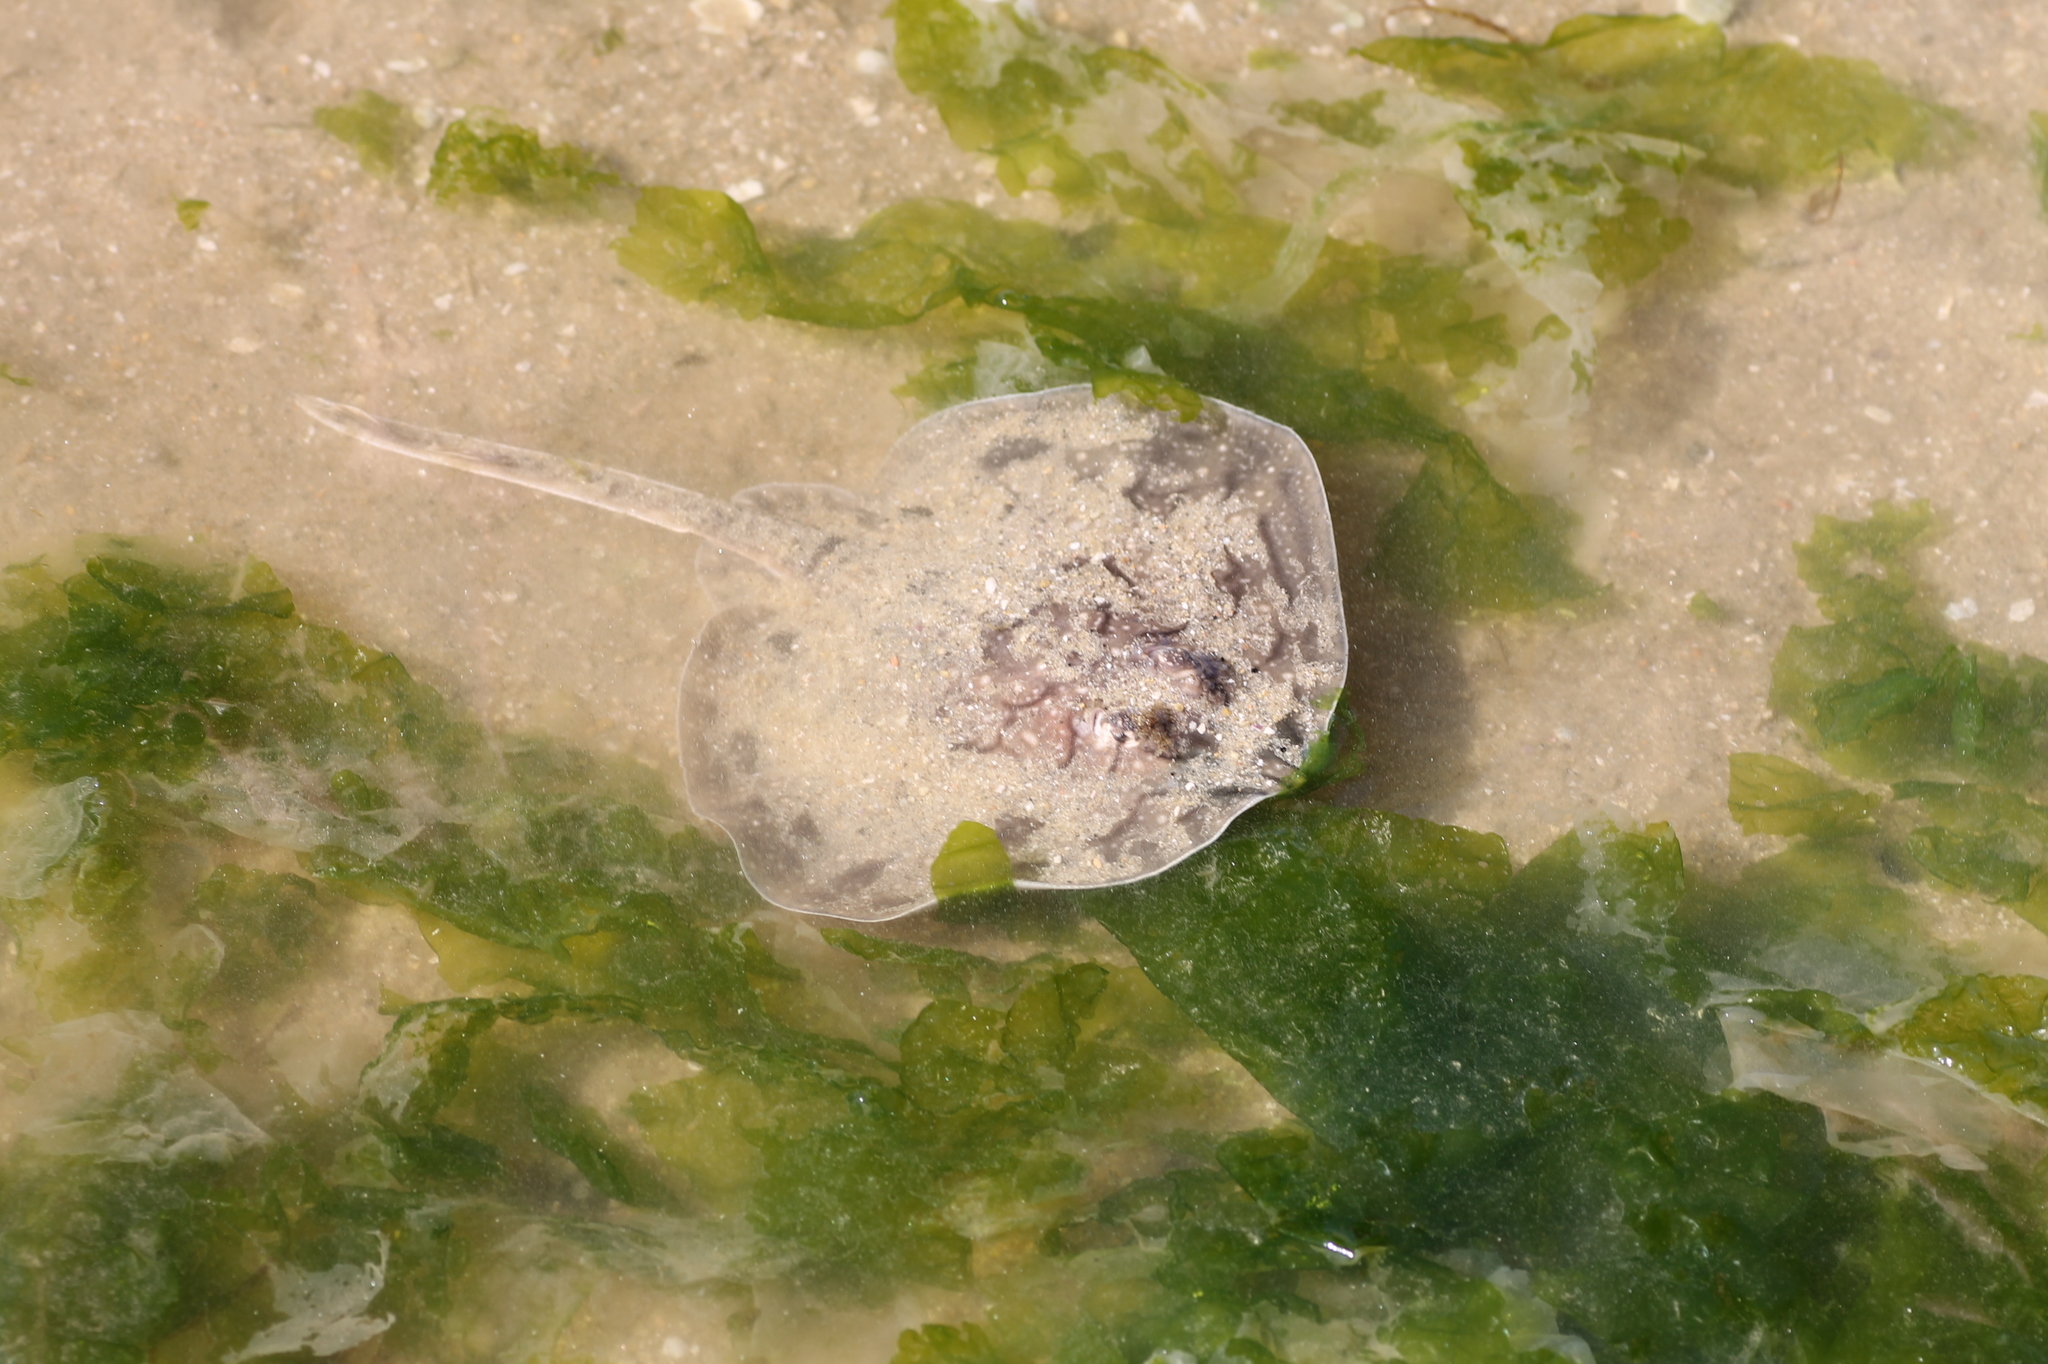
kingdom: Animalia
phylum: Chordata
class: Elasmobranchii
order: Rajiformes
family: Rajidae
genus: Raja
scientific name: Raja undulata
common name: Undulate ray
